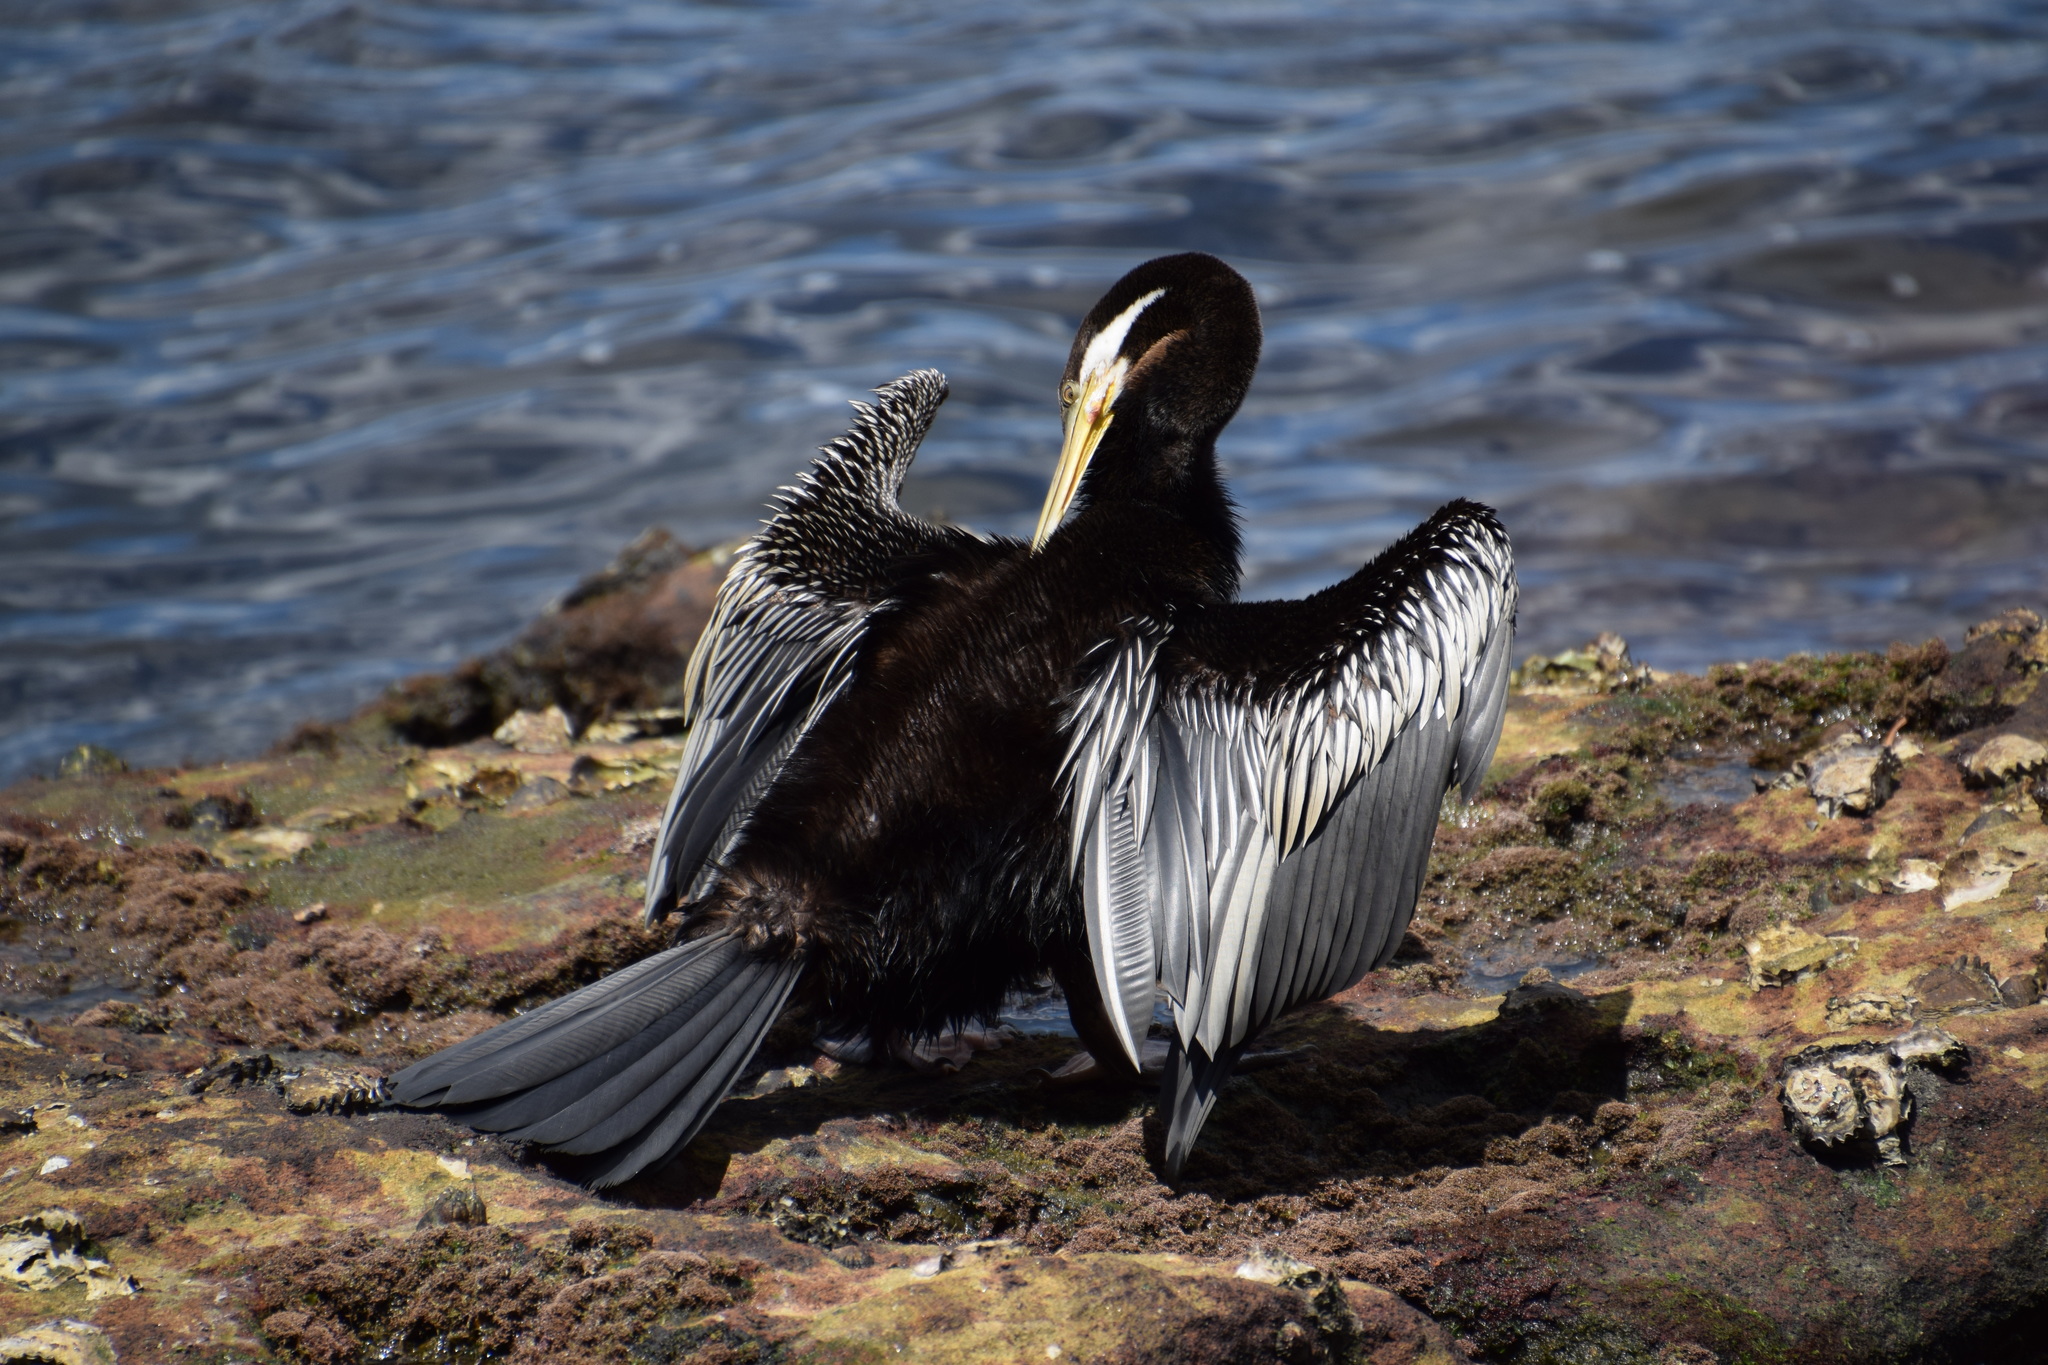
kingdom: Animalia
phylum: Chordata
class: Aves
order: Suliformes
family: Anhingidae
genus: Anhinga
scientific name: Anhinga novaehollandiae
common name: Australasian darter
